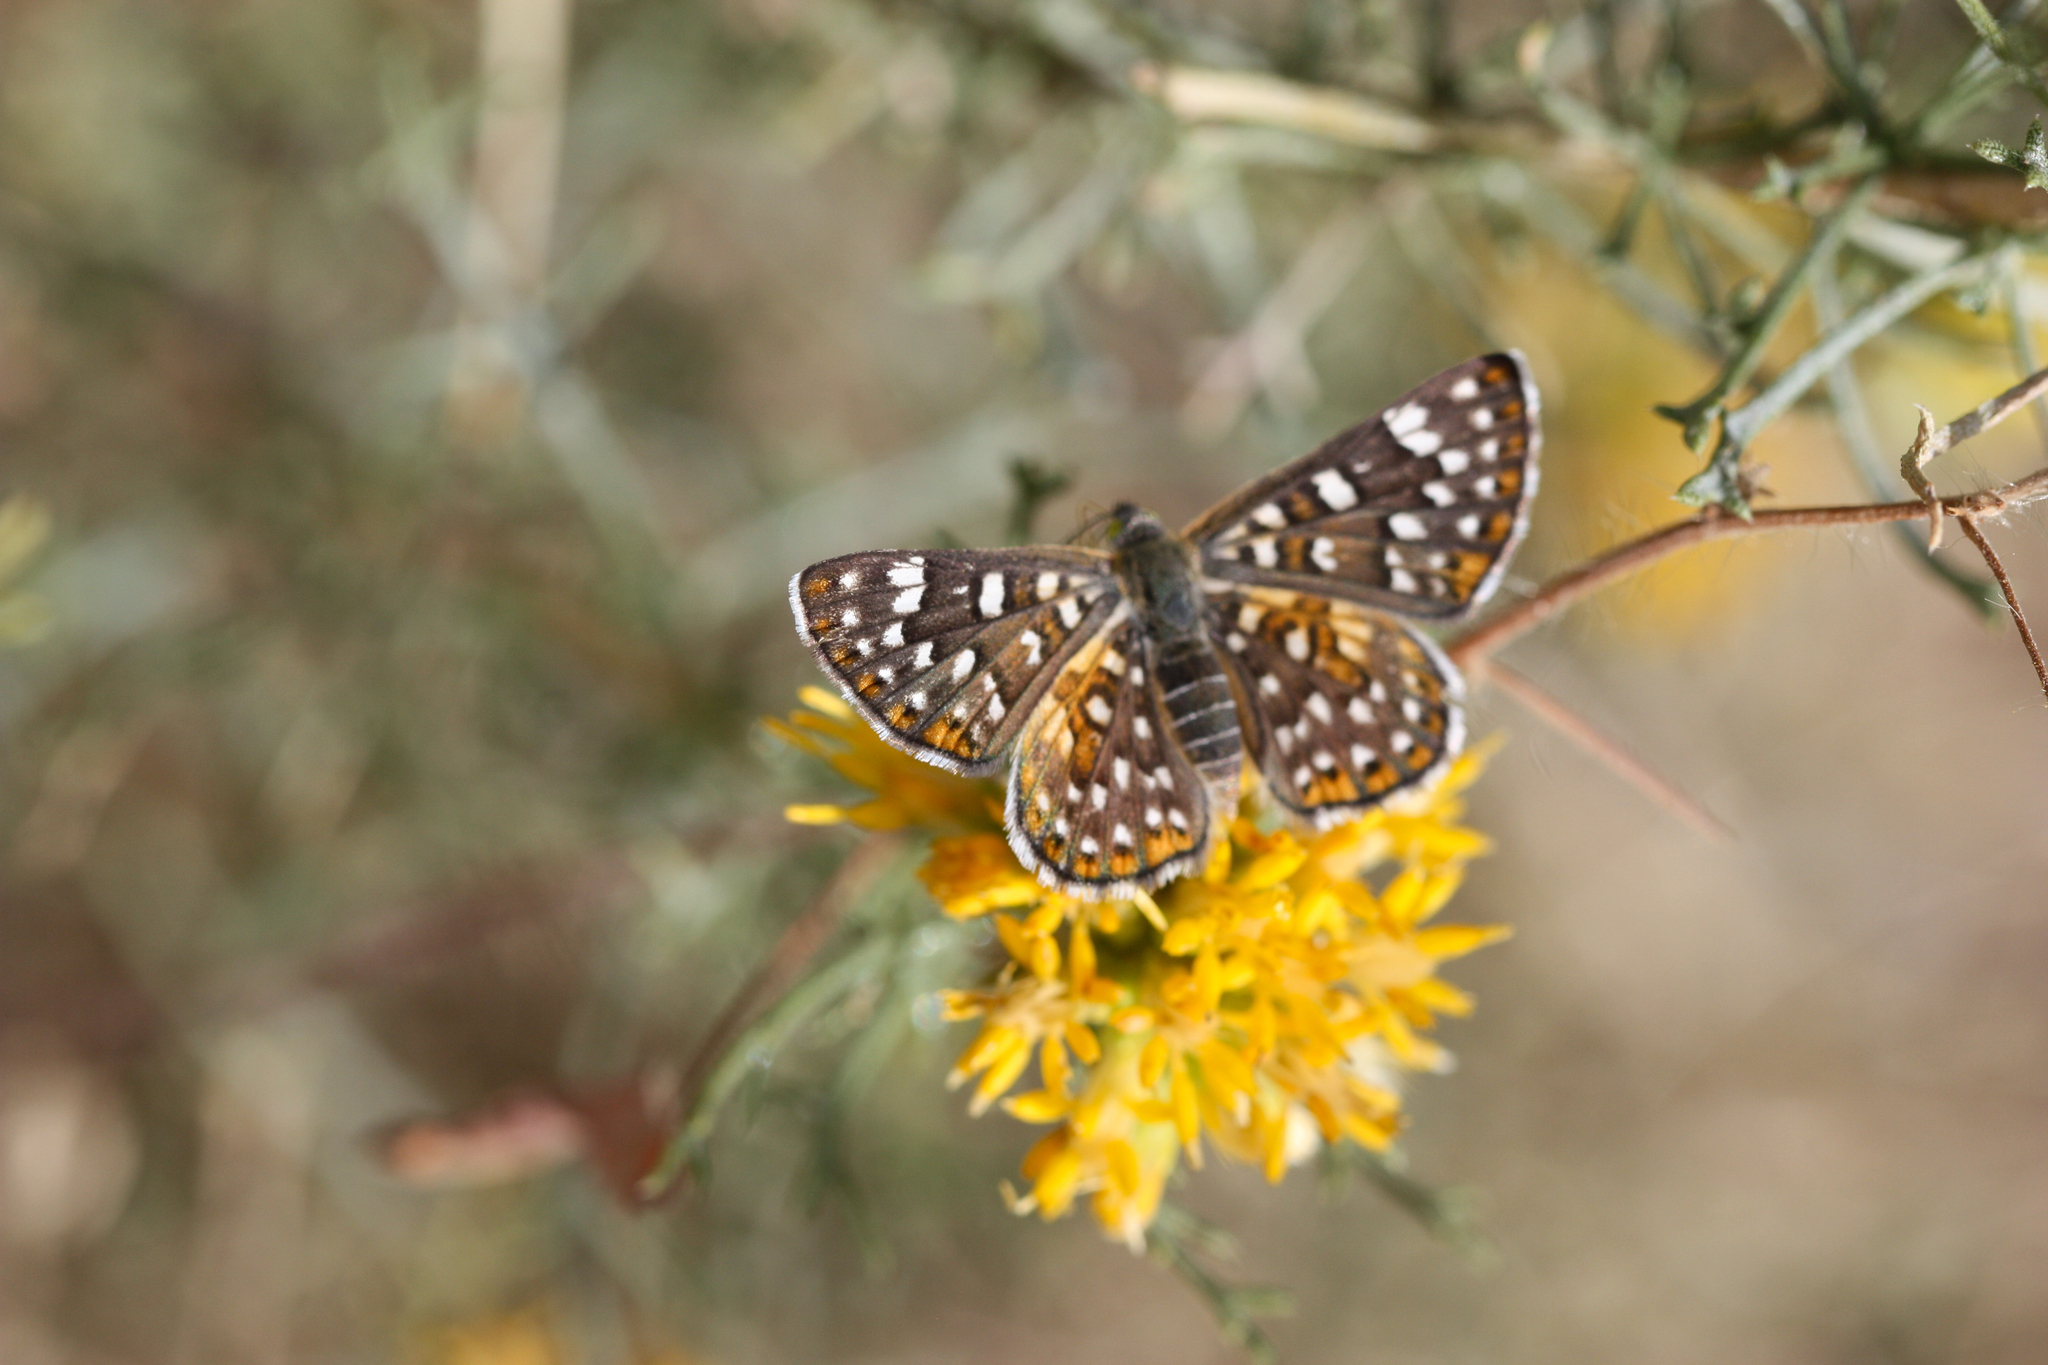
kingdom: Animalia
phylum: Arthropoda
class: Insecta
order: Lepidoptera
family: Riodinidae
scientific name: Riodinidae
